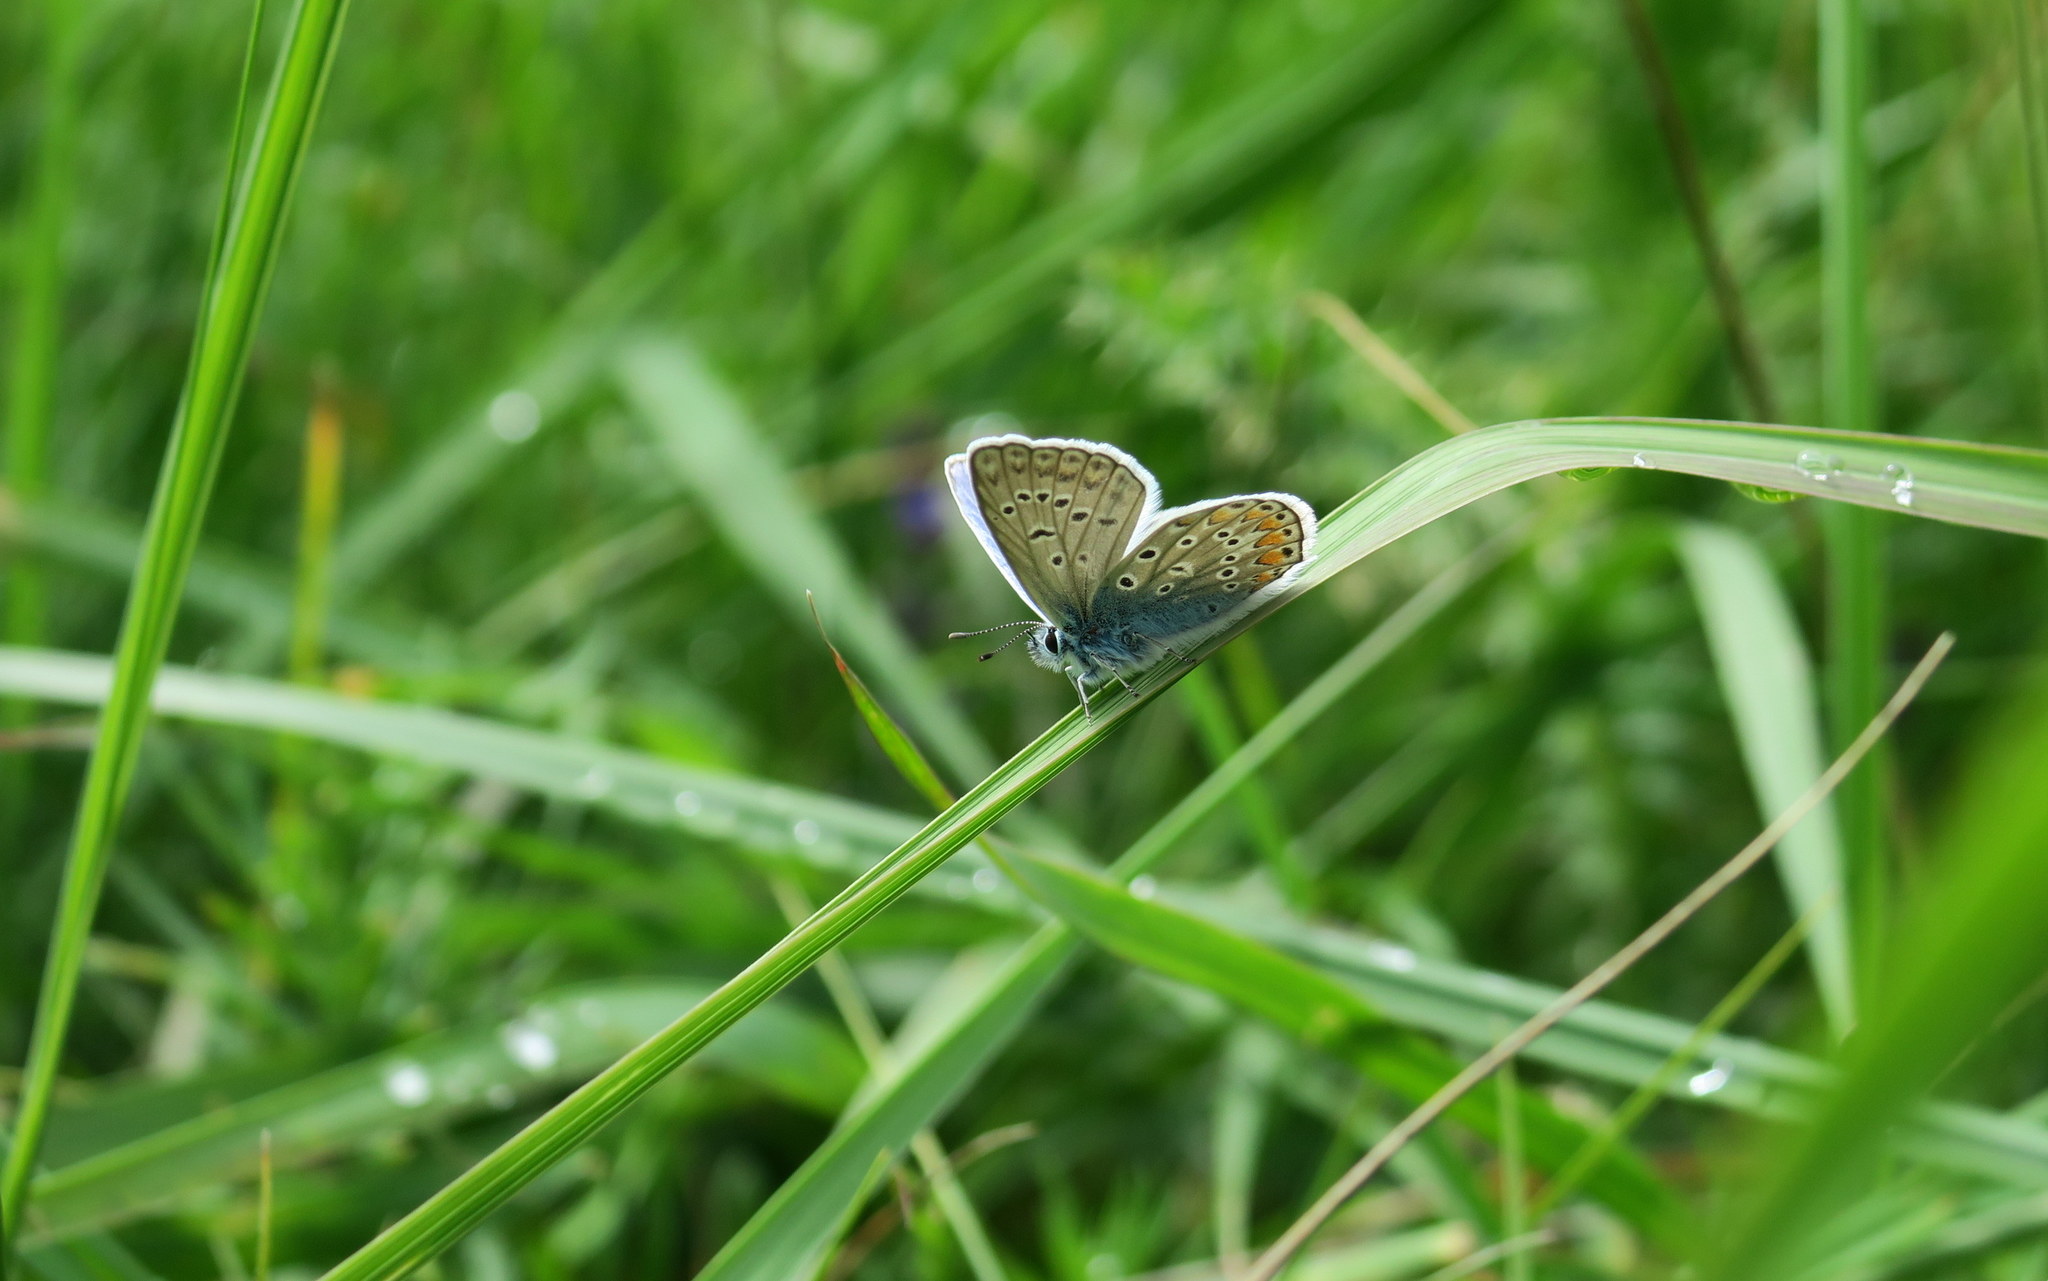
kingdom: Animalia
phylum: Arthropoda
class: Insecta
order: Lepidoptera
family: Lycaenidae
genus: Polyommatus
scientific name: Polyommatus icarus
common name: Common blue
